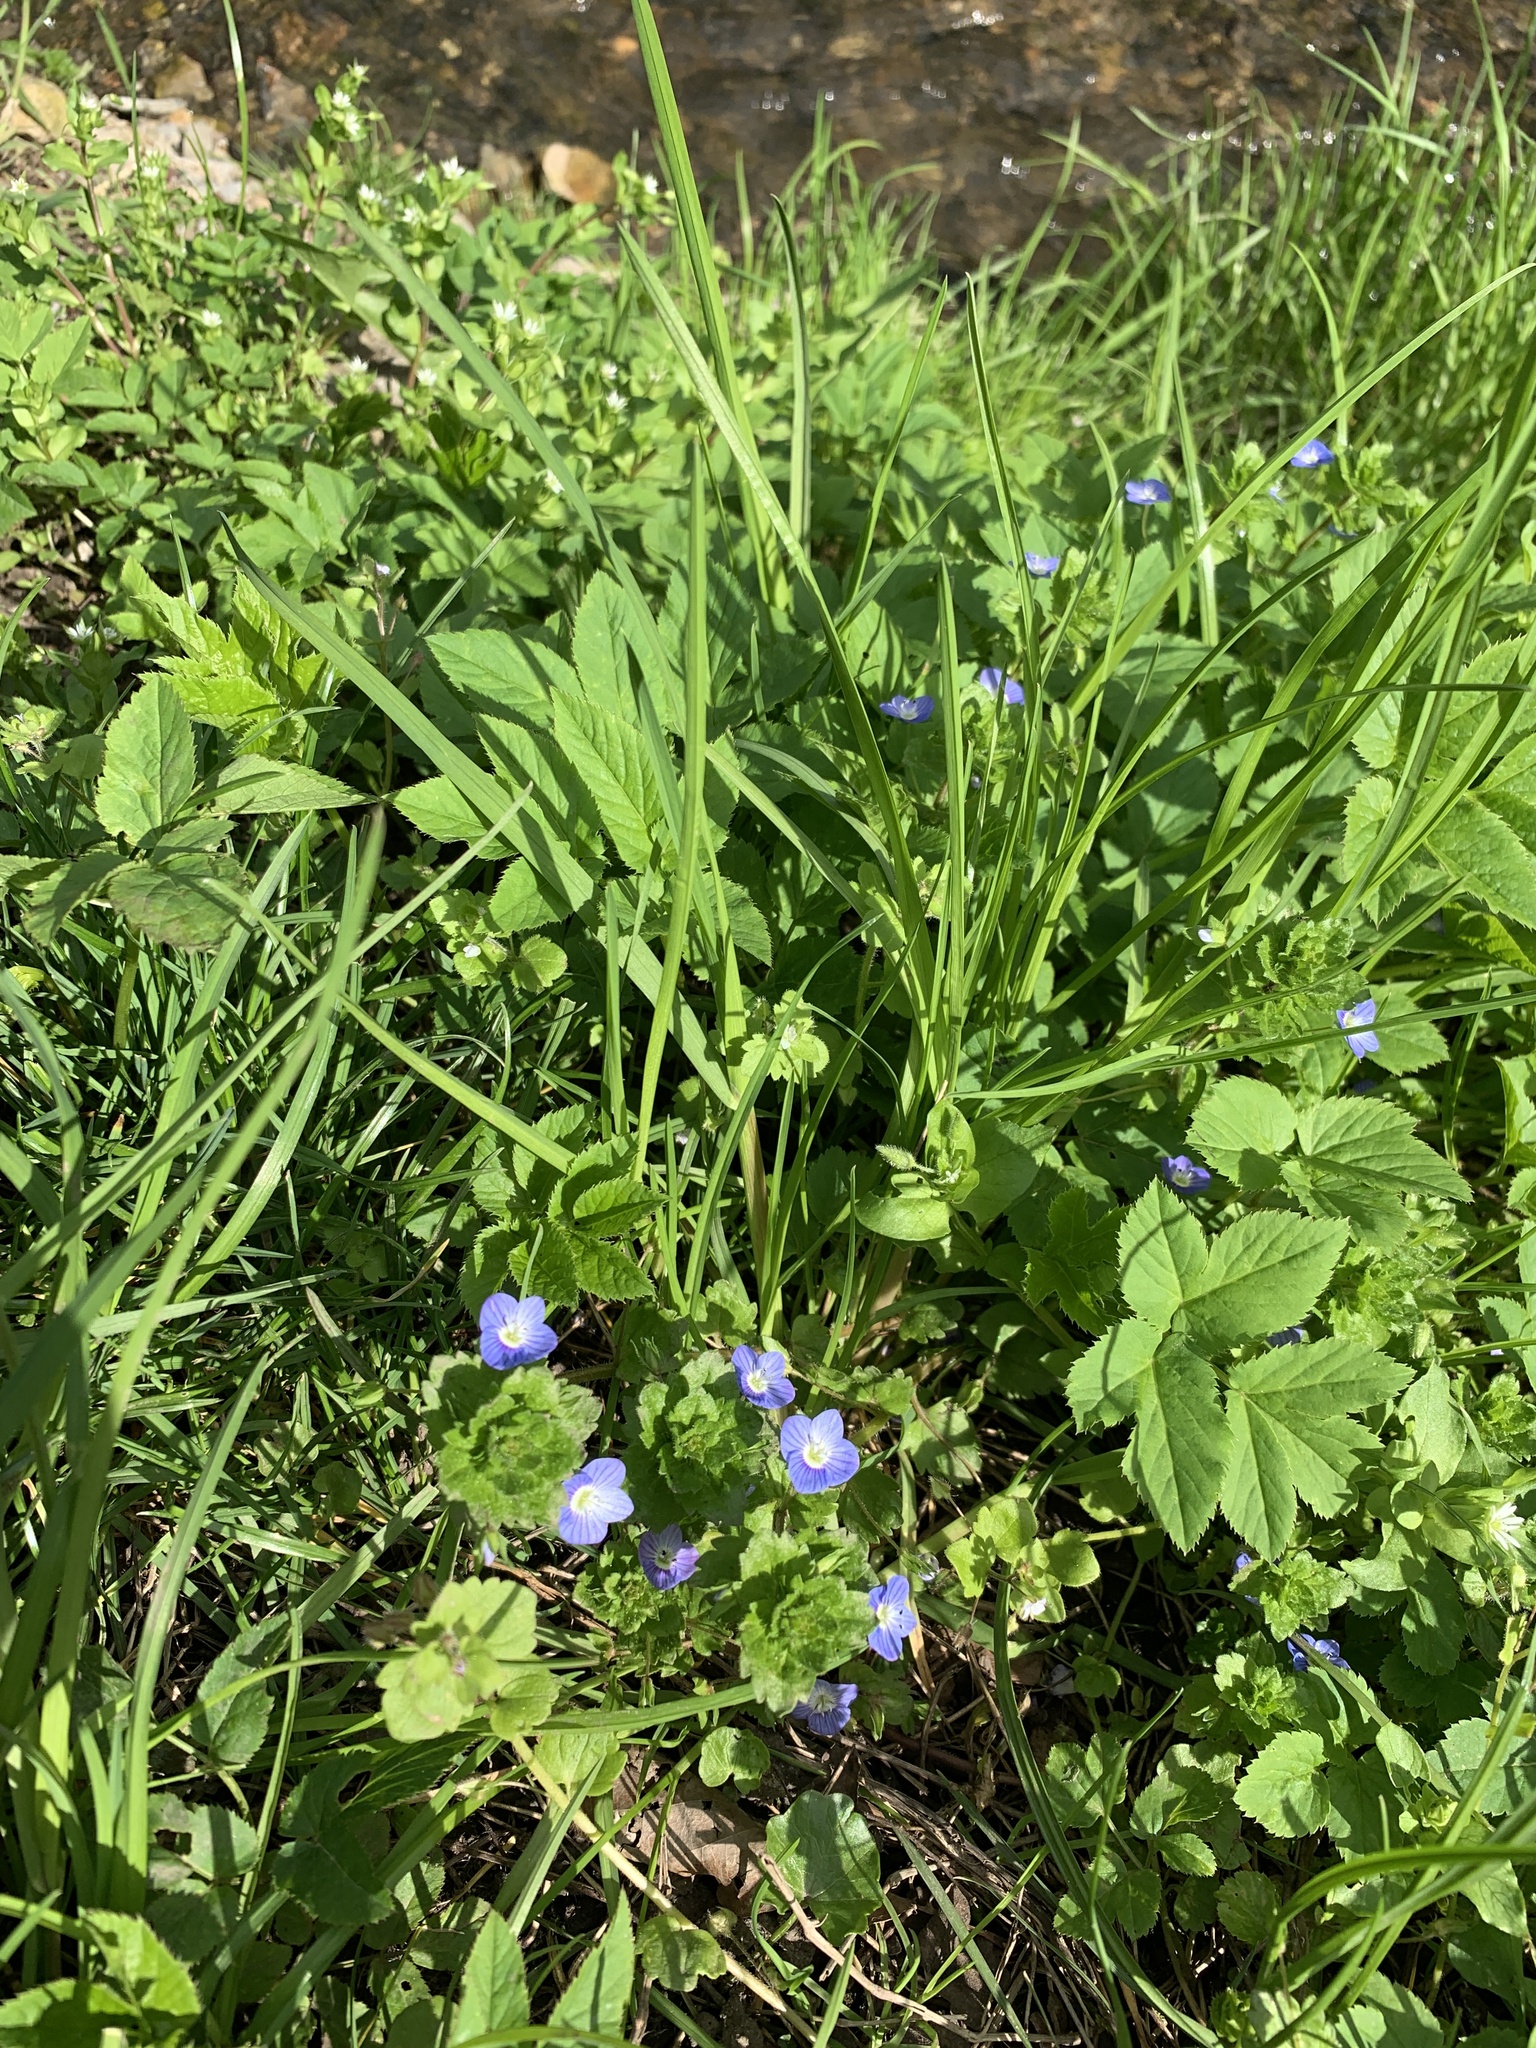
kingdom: Plantae
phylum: Tracheophyta
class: Magnoliopsida
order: Lamiales
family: Plantaginaceae
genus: Veronica
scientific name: Veronica persica
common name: Common field-speedwell
